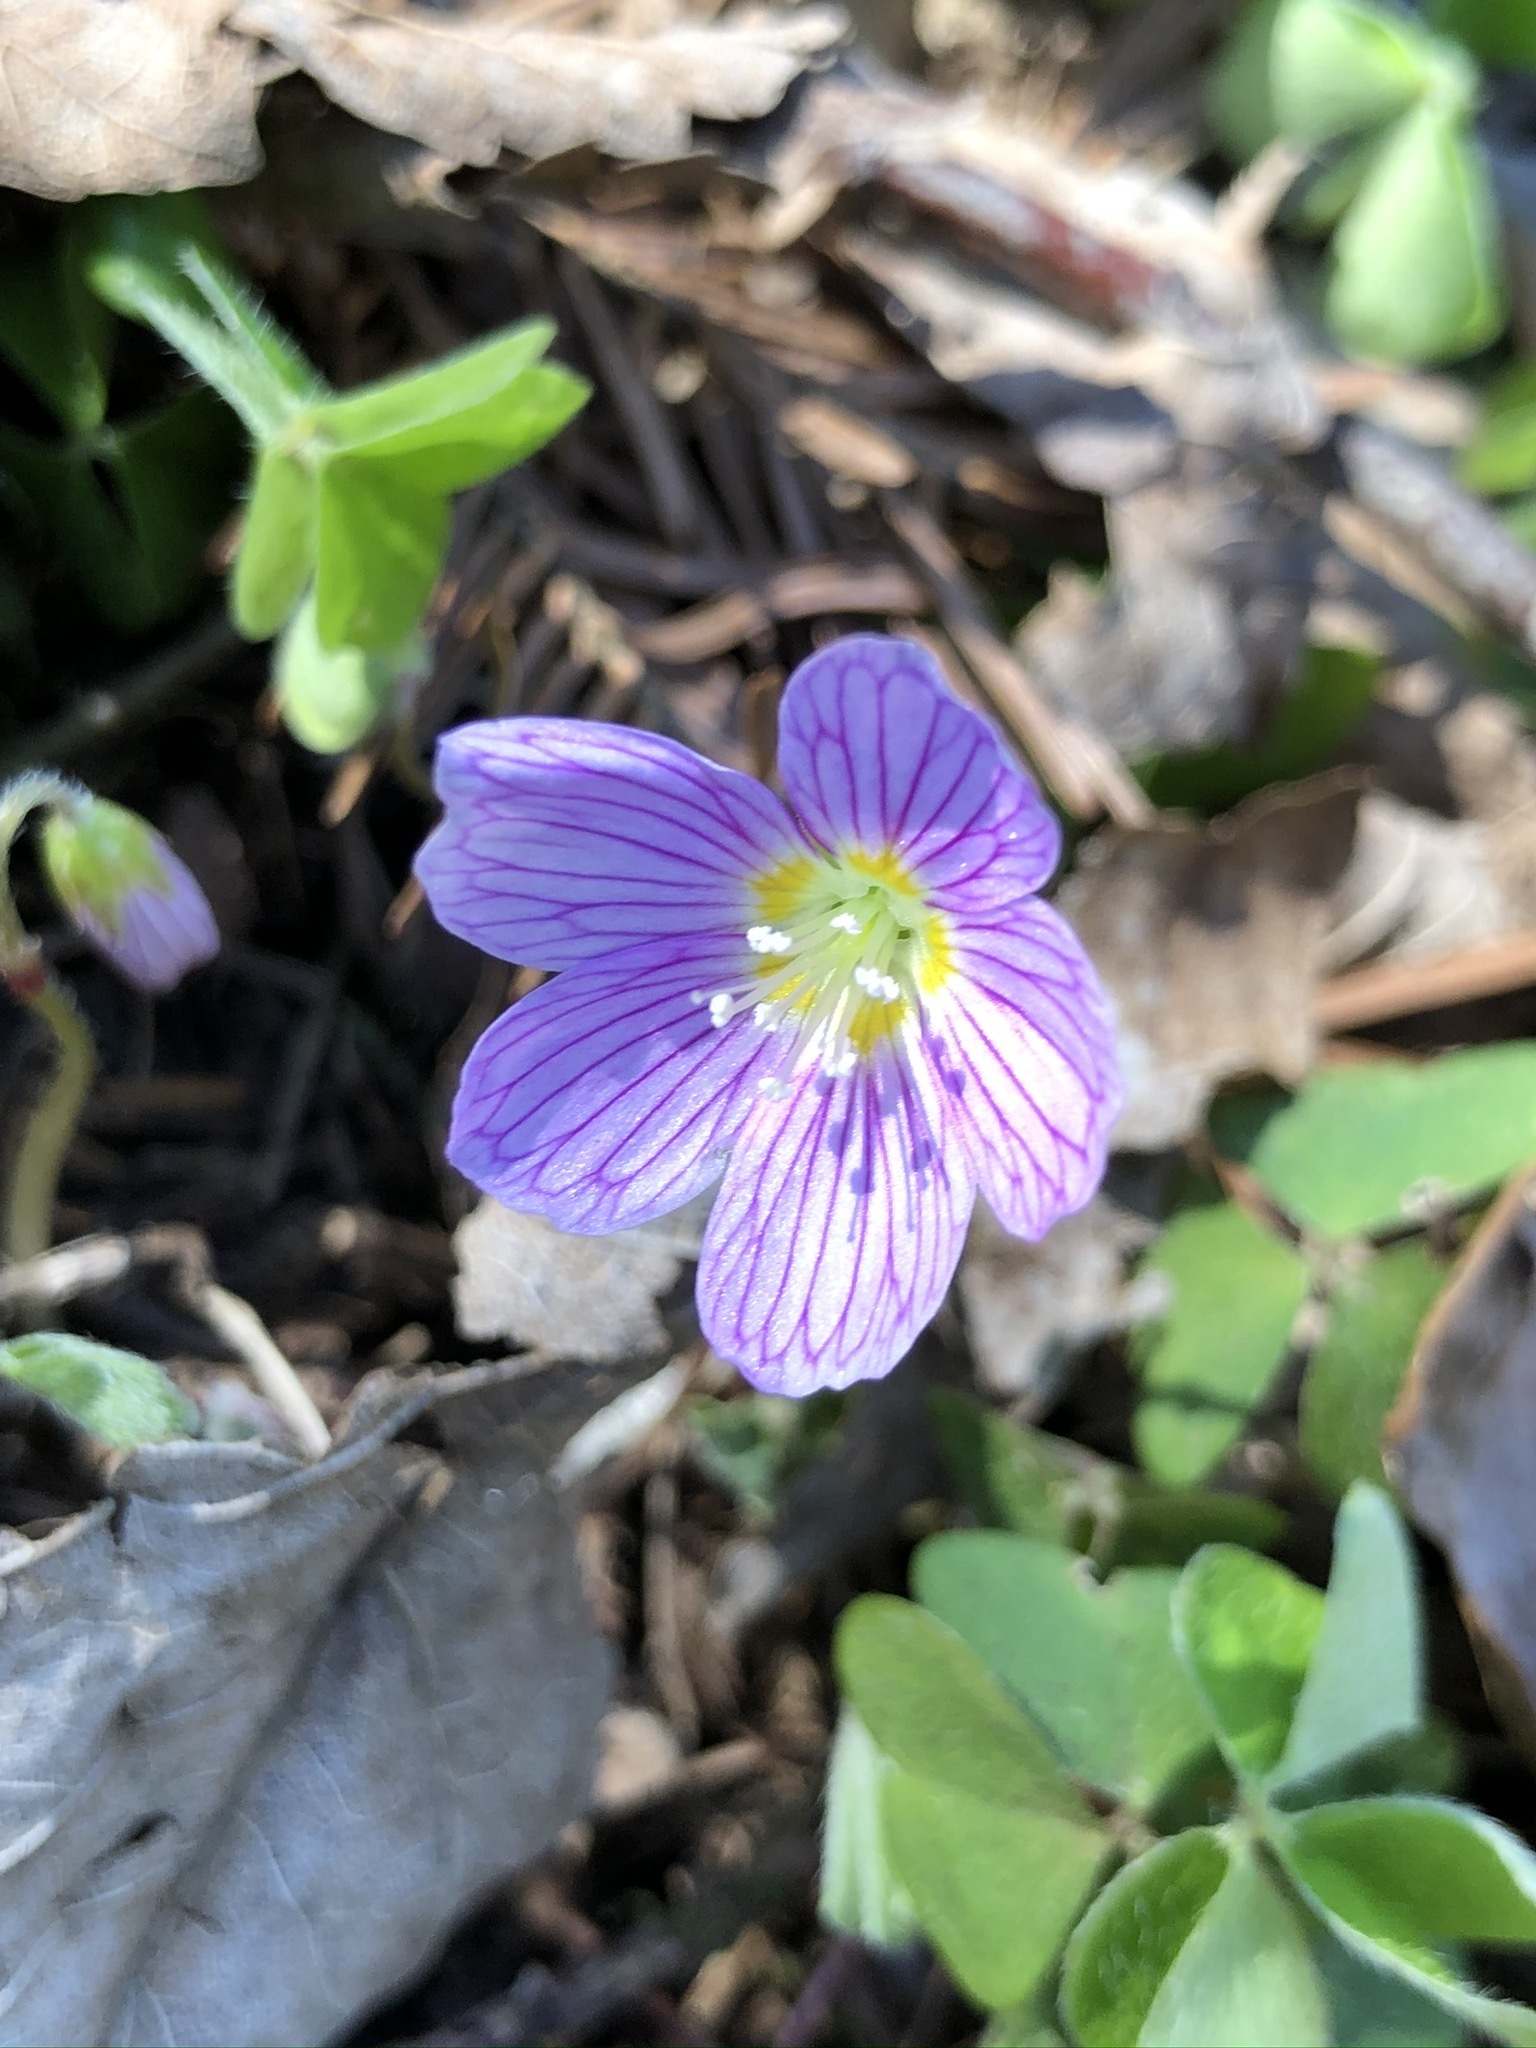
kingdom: Plantae
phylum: Tracheophyta
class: Magnoliopsida
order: Oxalidales
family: Oxalidaceae
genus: Oxalis
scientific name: Oxalis acetosella
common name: Wood-sorrel
